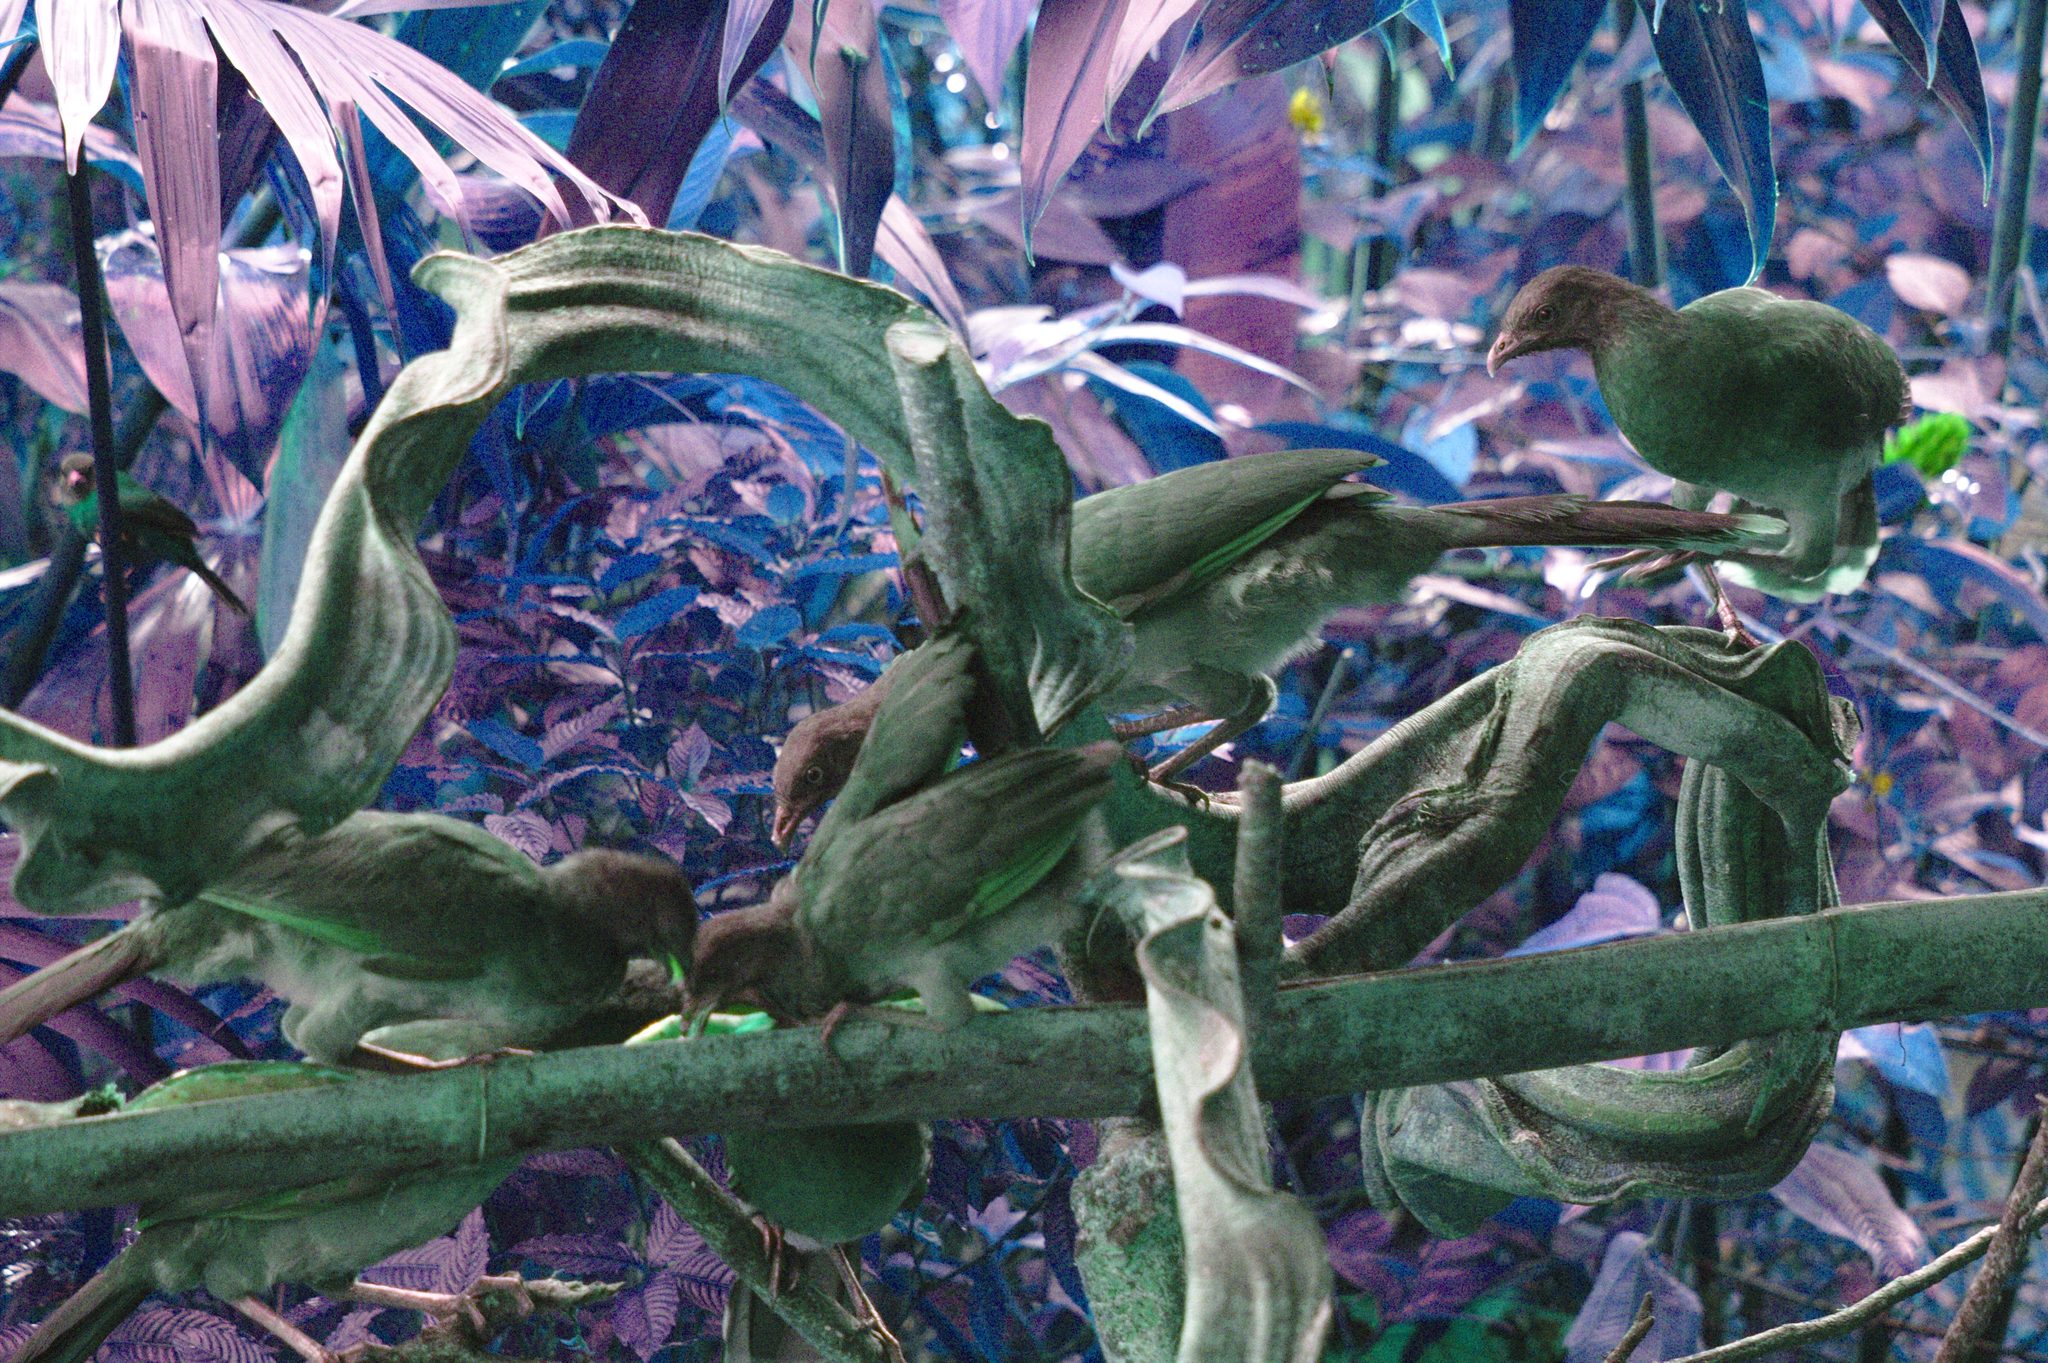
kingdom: Animalia
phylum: Chordata
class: Aves
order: Galliformes
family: Cracidae
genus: Ortalis
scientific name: Ortalis cinereiceps
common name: Grey-headed chachalaca
